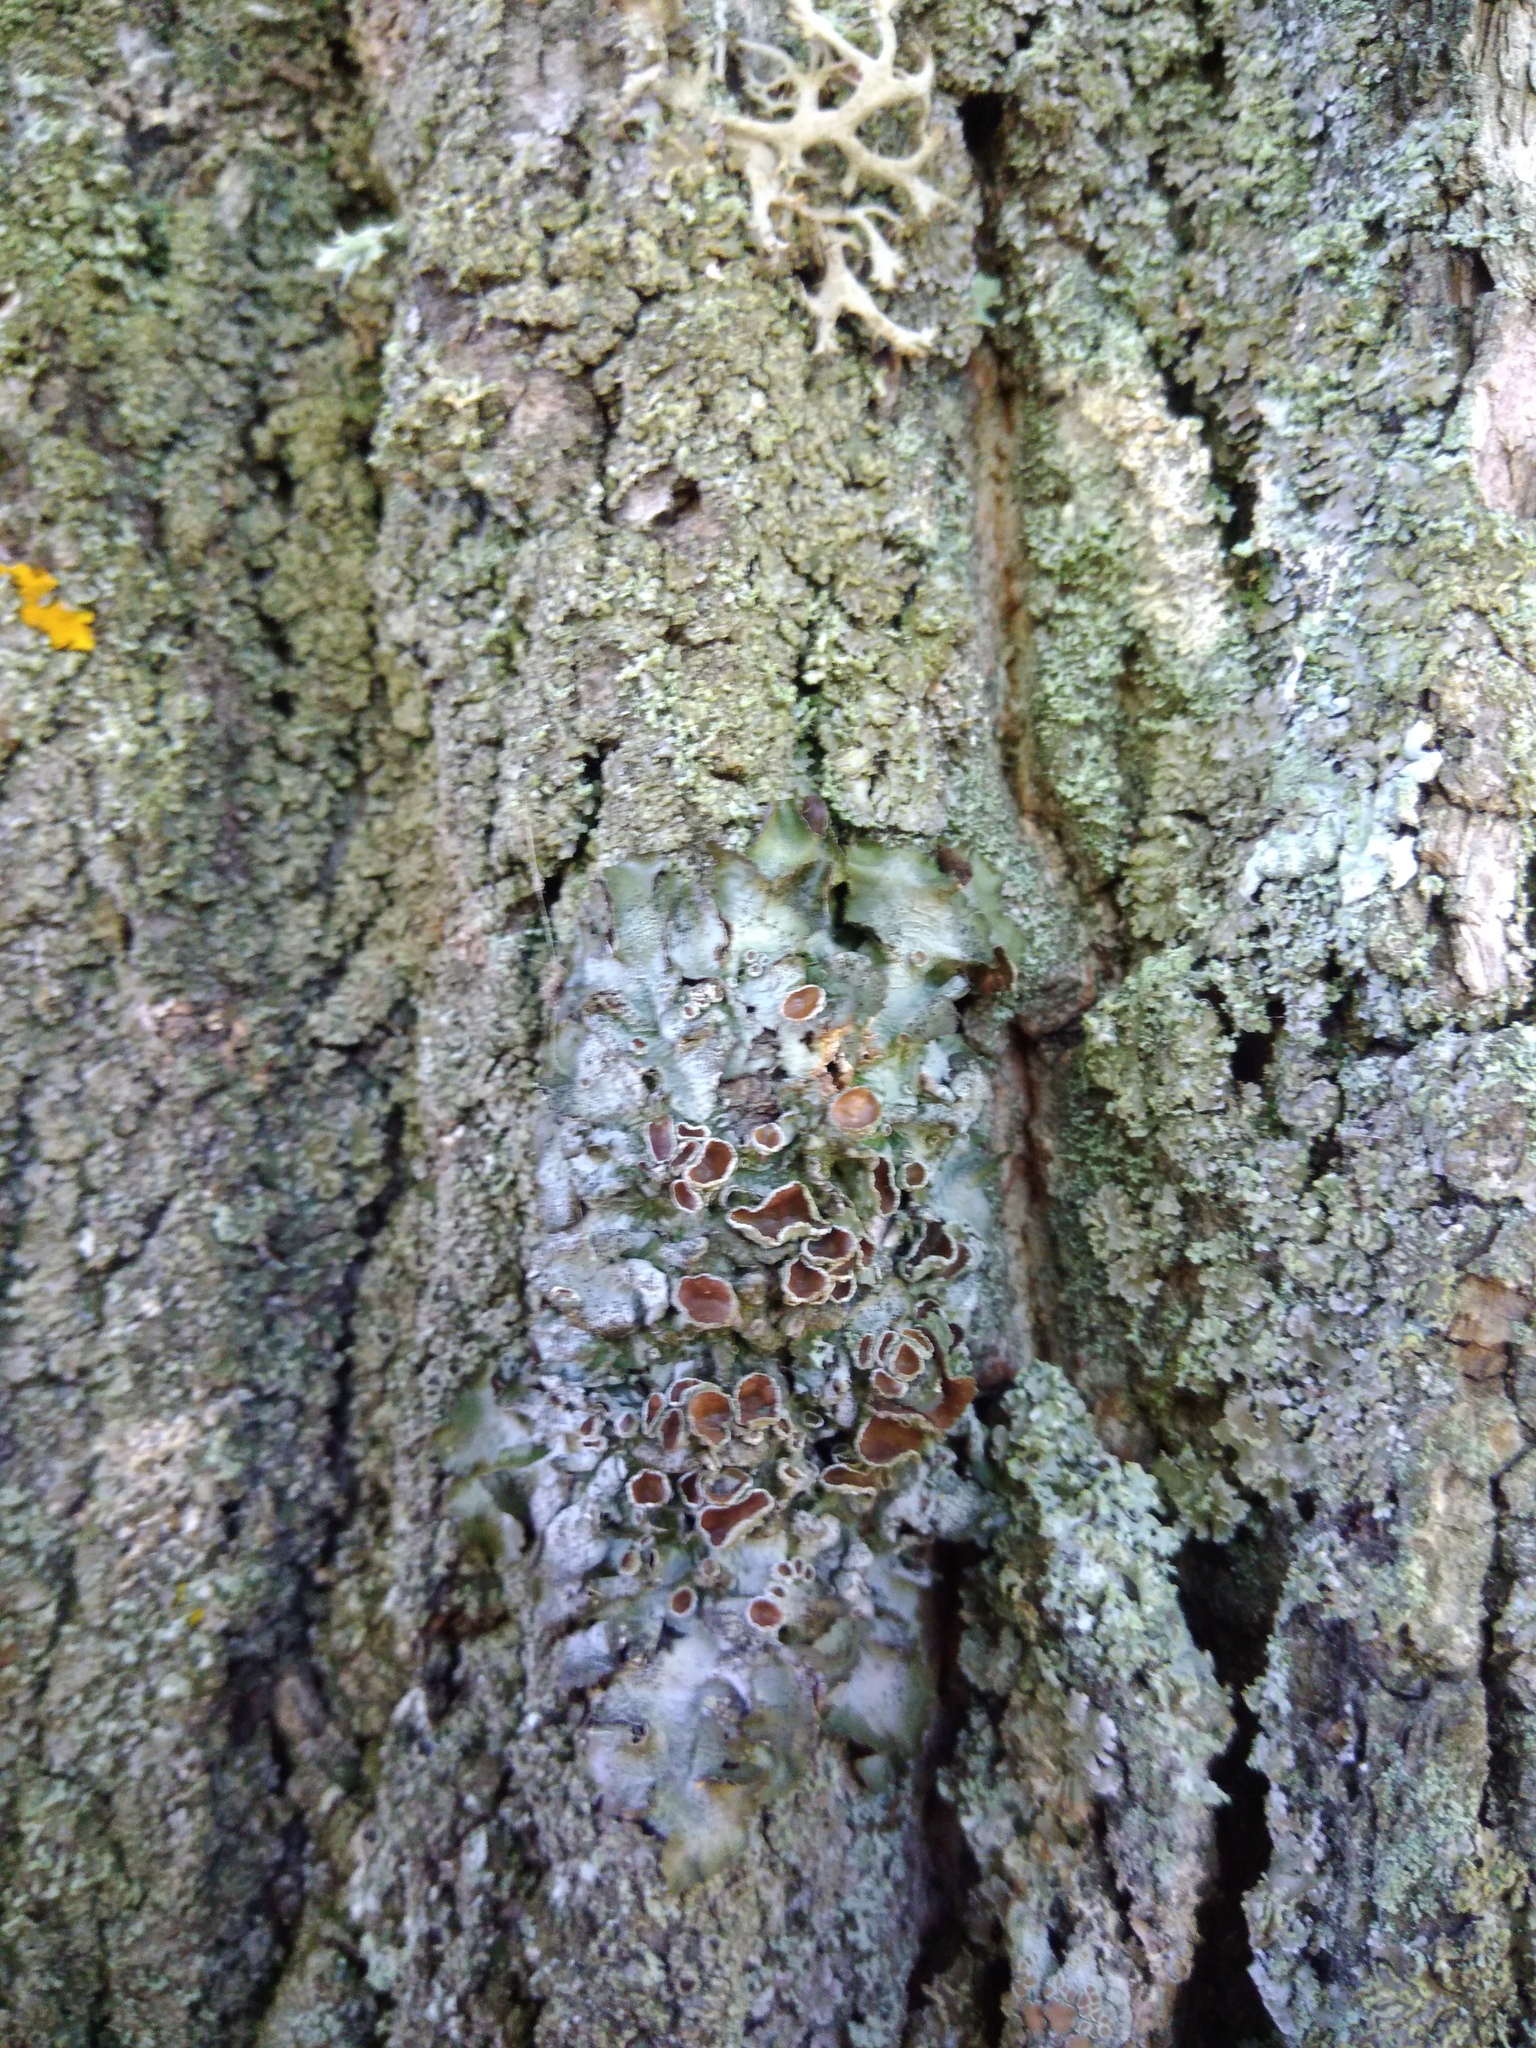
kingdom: Fungi
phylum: Ascomycota
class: Lecanoromycetes
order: Lecanorales
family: Parmeliaceae
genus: Pleurosticta
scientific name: Pleurosticta acetabulum
